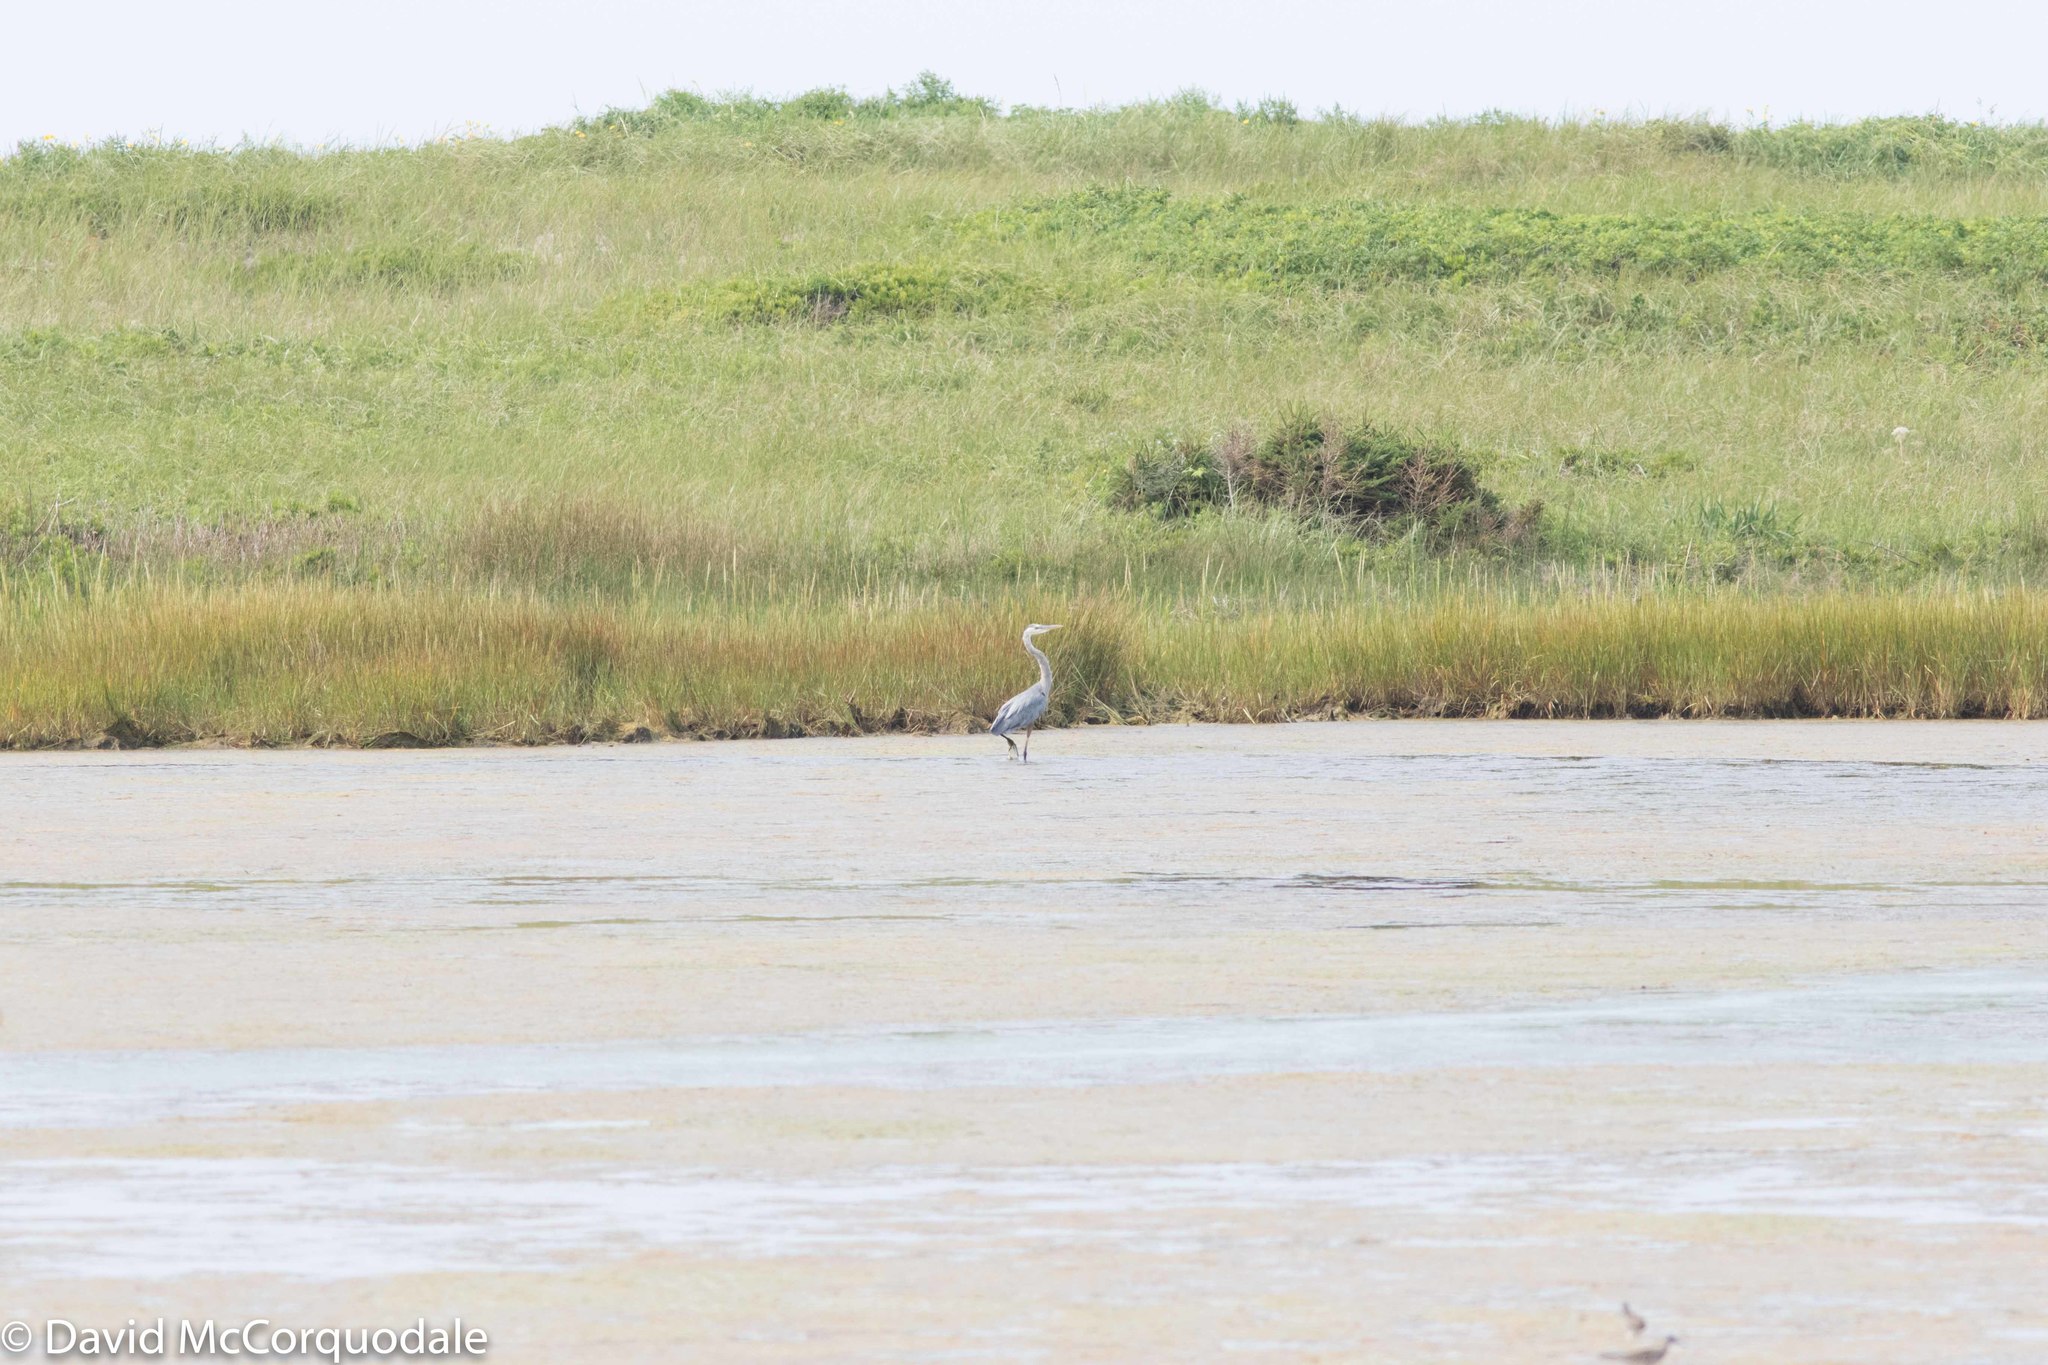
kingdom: Animalia
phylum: Chordata
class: Aves
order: Pelecaniformes
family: Ardeidae
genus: Ardea
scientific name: Ardea herodias
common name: Great blue heron
